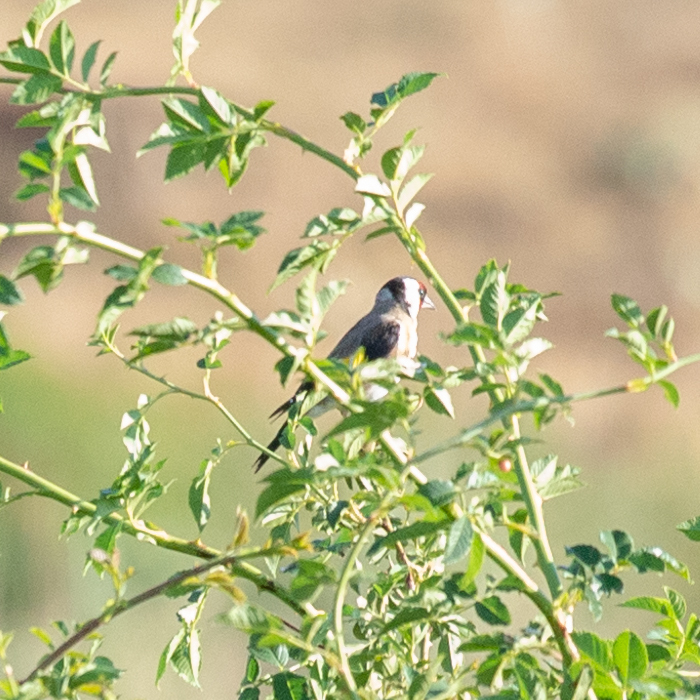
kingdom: Animalia
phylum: Chordata
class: Aves
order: Passeriformes
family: Fringillidae
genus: Carduelis
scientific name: Carduelis carduelis
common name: European goldfinch
